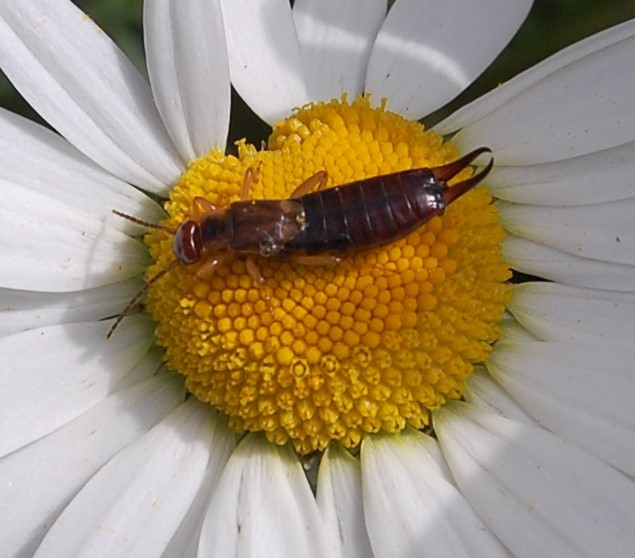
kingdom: Animalia
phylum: Arthropoda
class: Insecta
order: Dermaptera
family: Forficulidae
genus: Forficula
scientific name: Forficula
